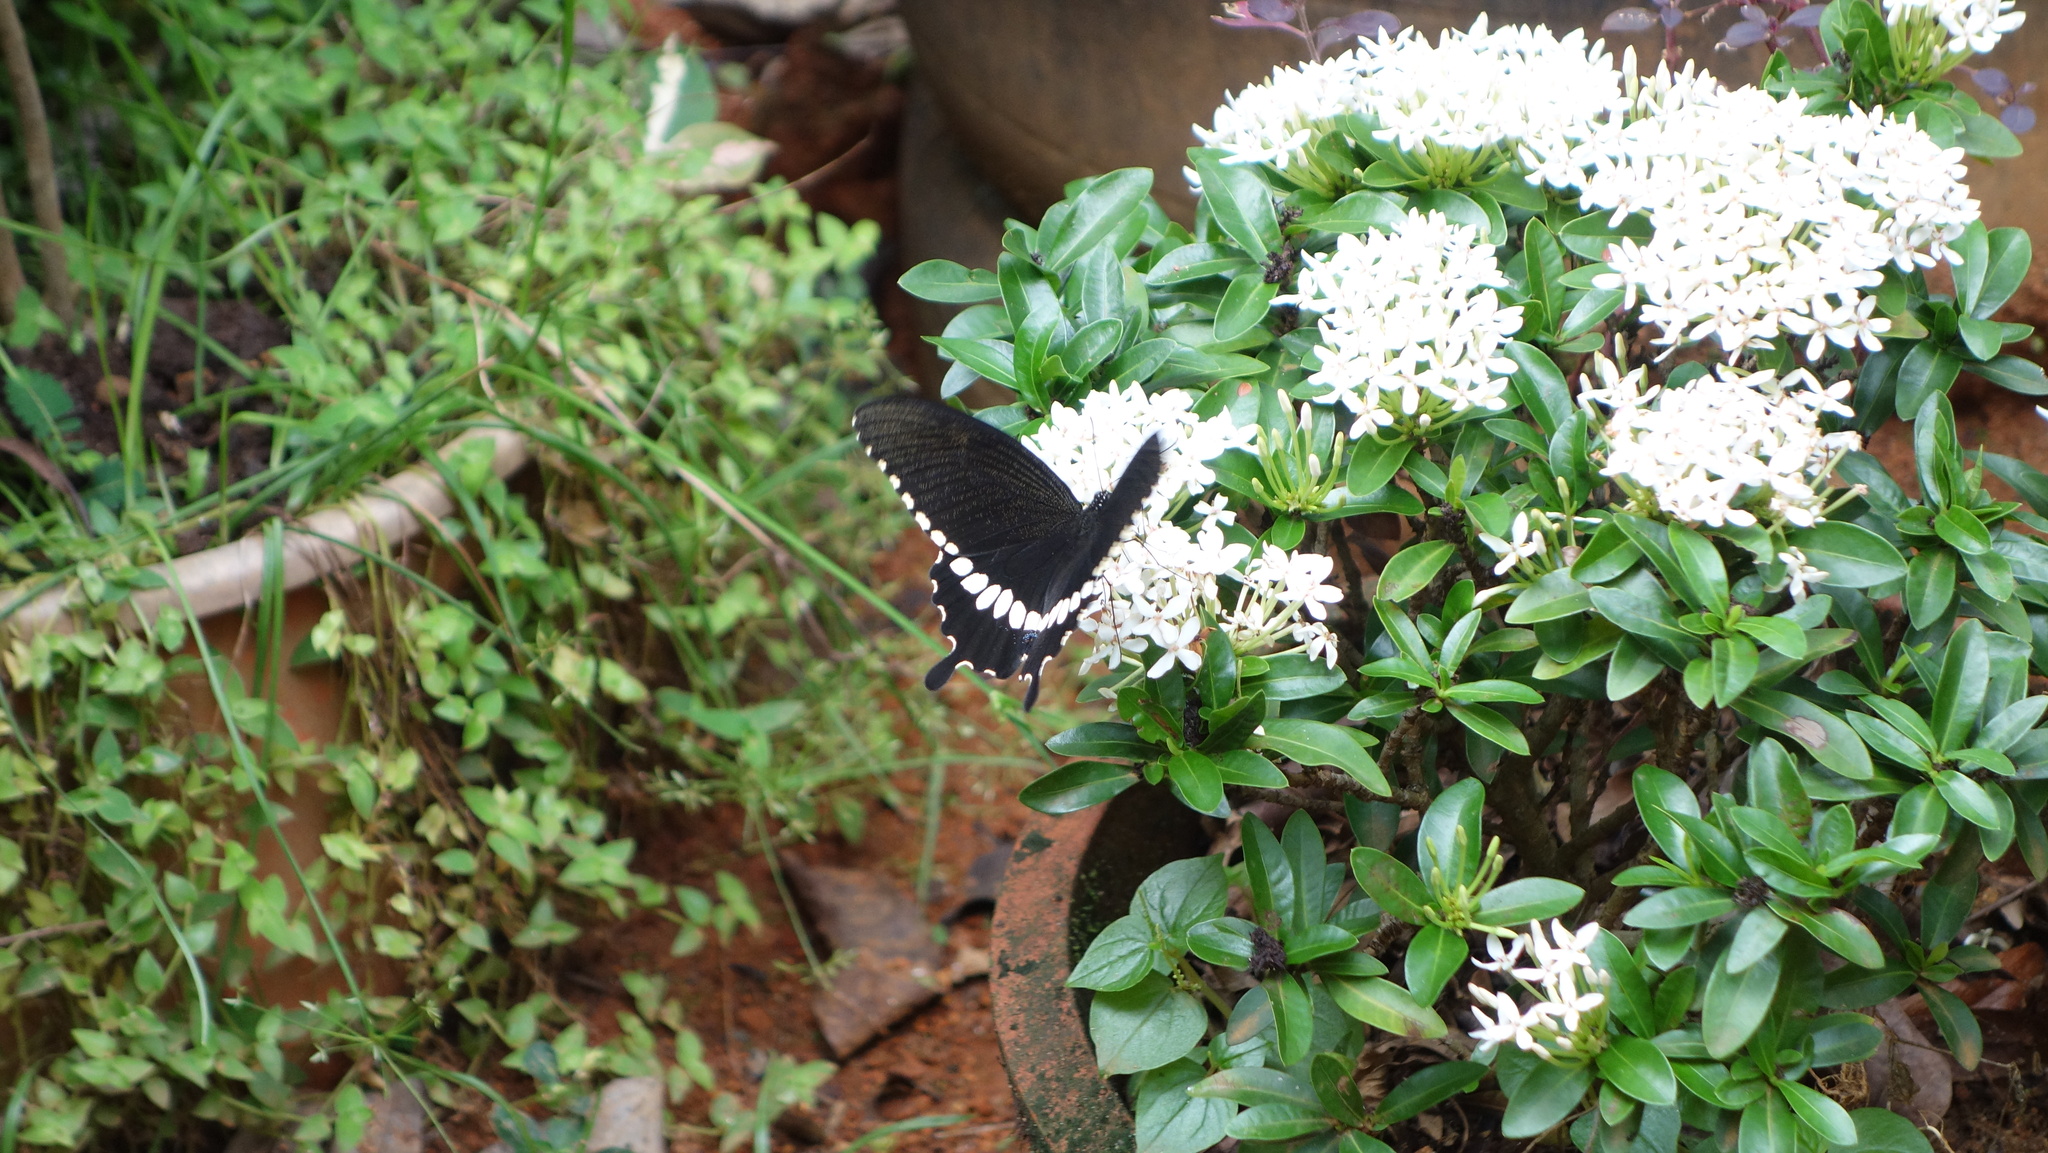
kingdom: Animalia
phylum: Arthropoda
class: Insecta
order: Lepidoptera
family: Papilionidae
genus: Papilio
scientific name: Papilio polytes
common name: Common mormon
